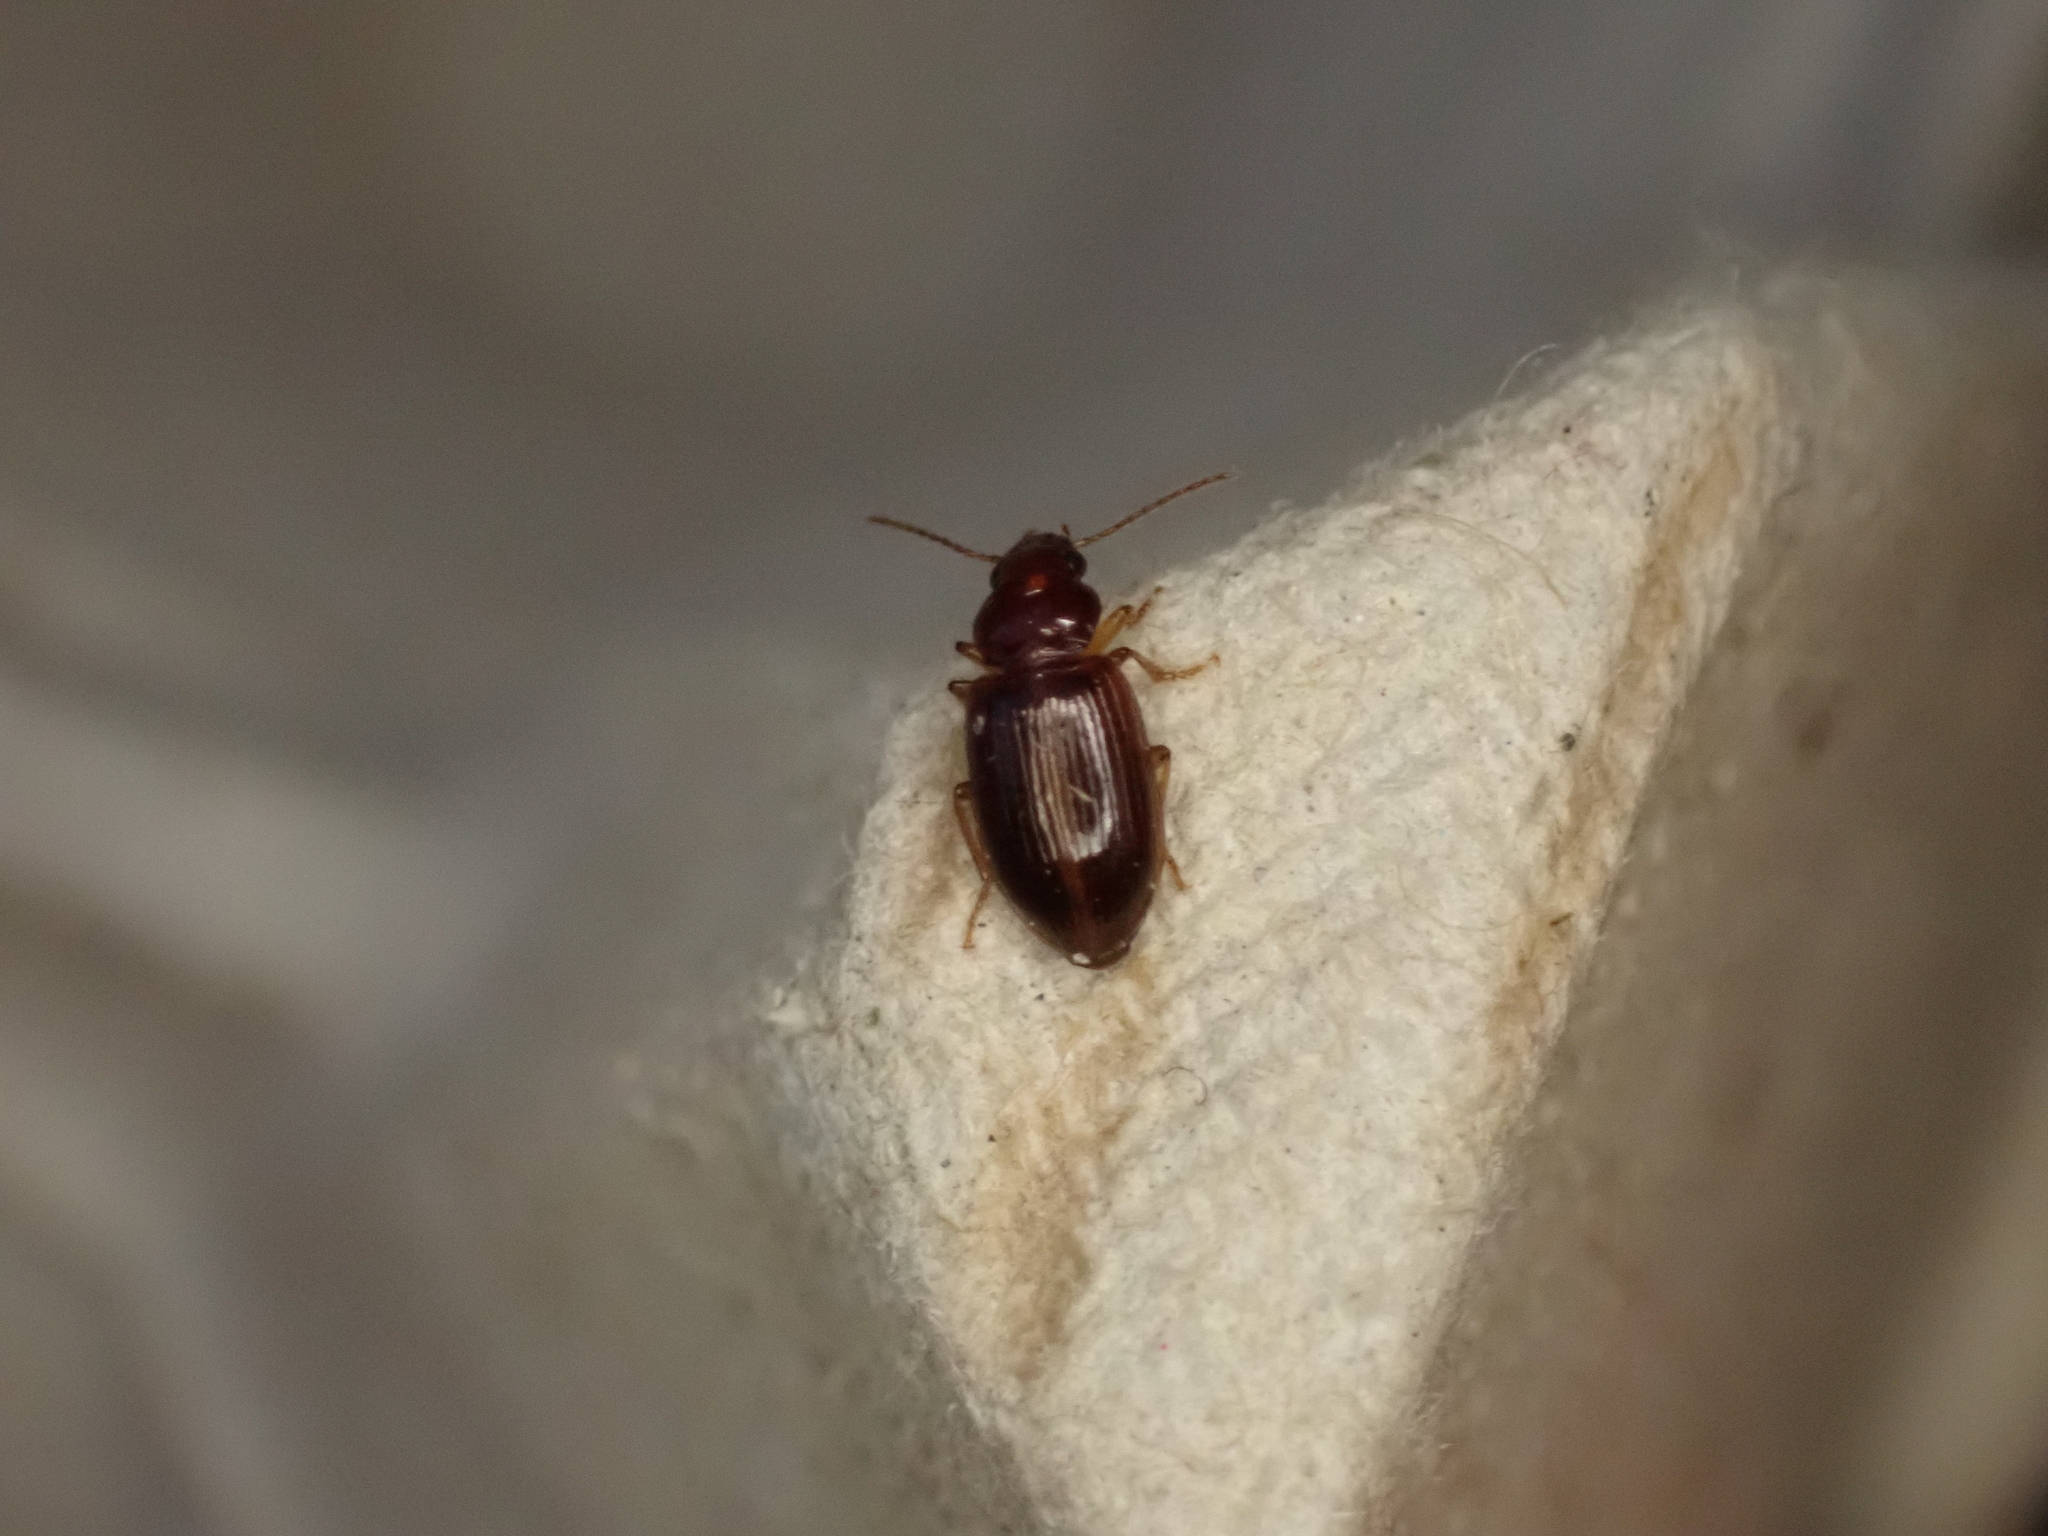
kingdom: Animalia
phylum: Arthropoda
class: Insecta
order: Coleoptera
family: Carabidae
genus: Bradycellus
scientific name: Bradycellus
